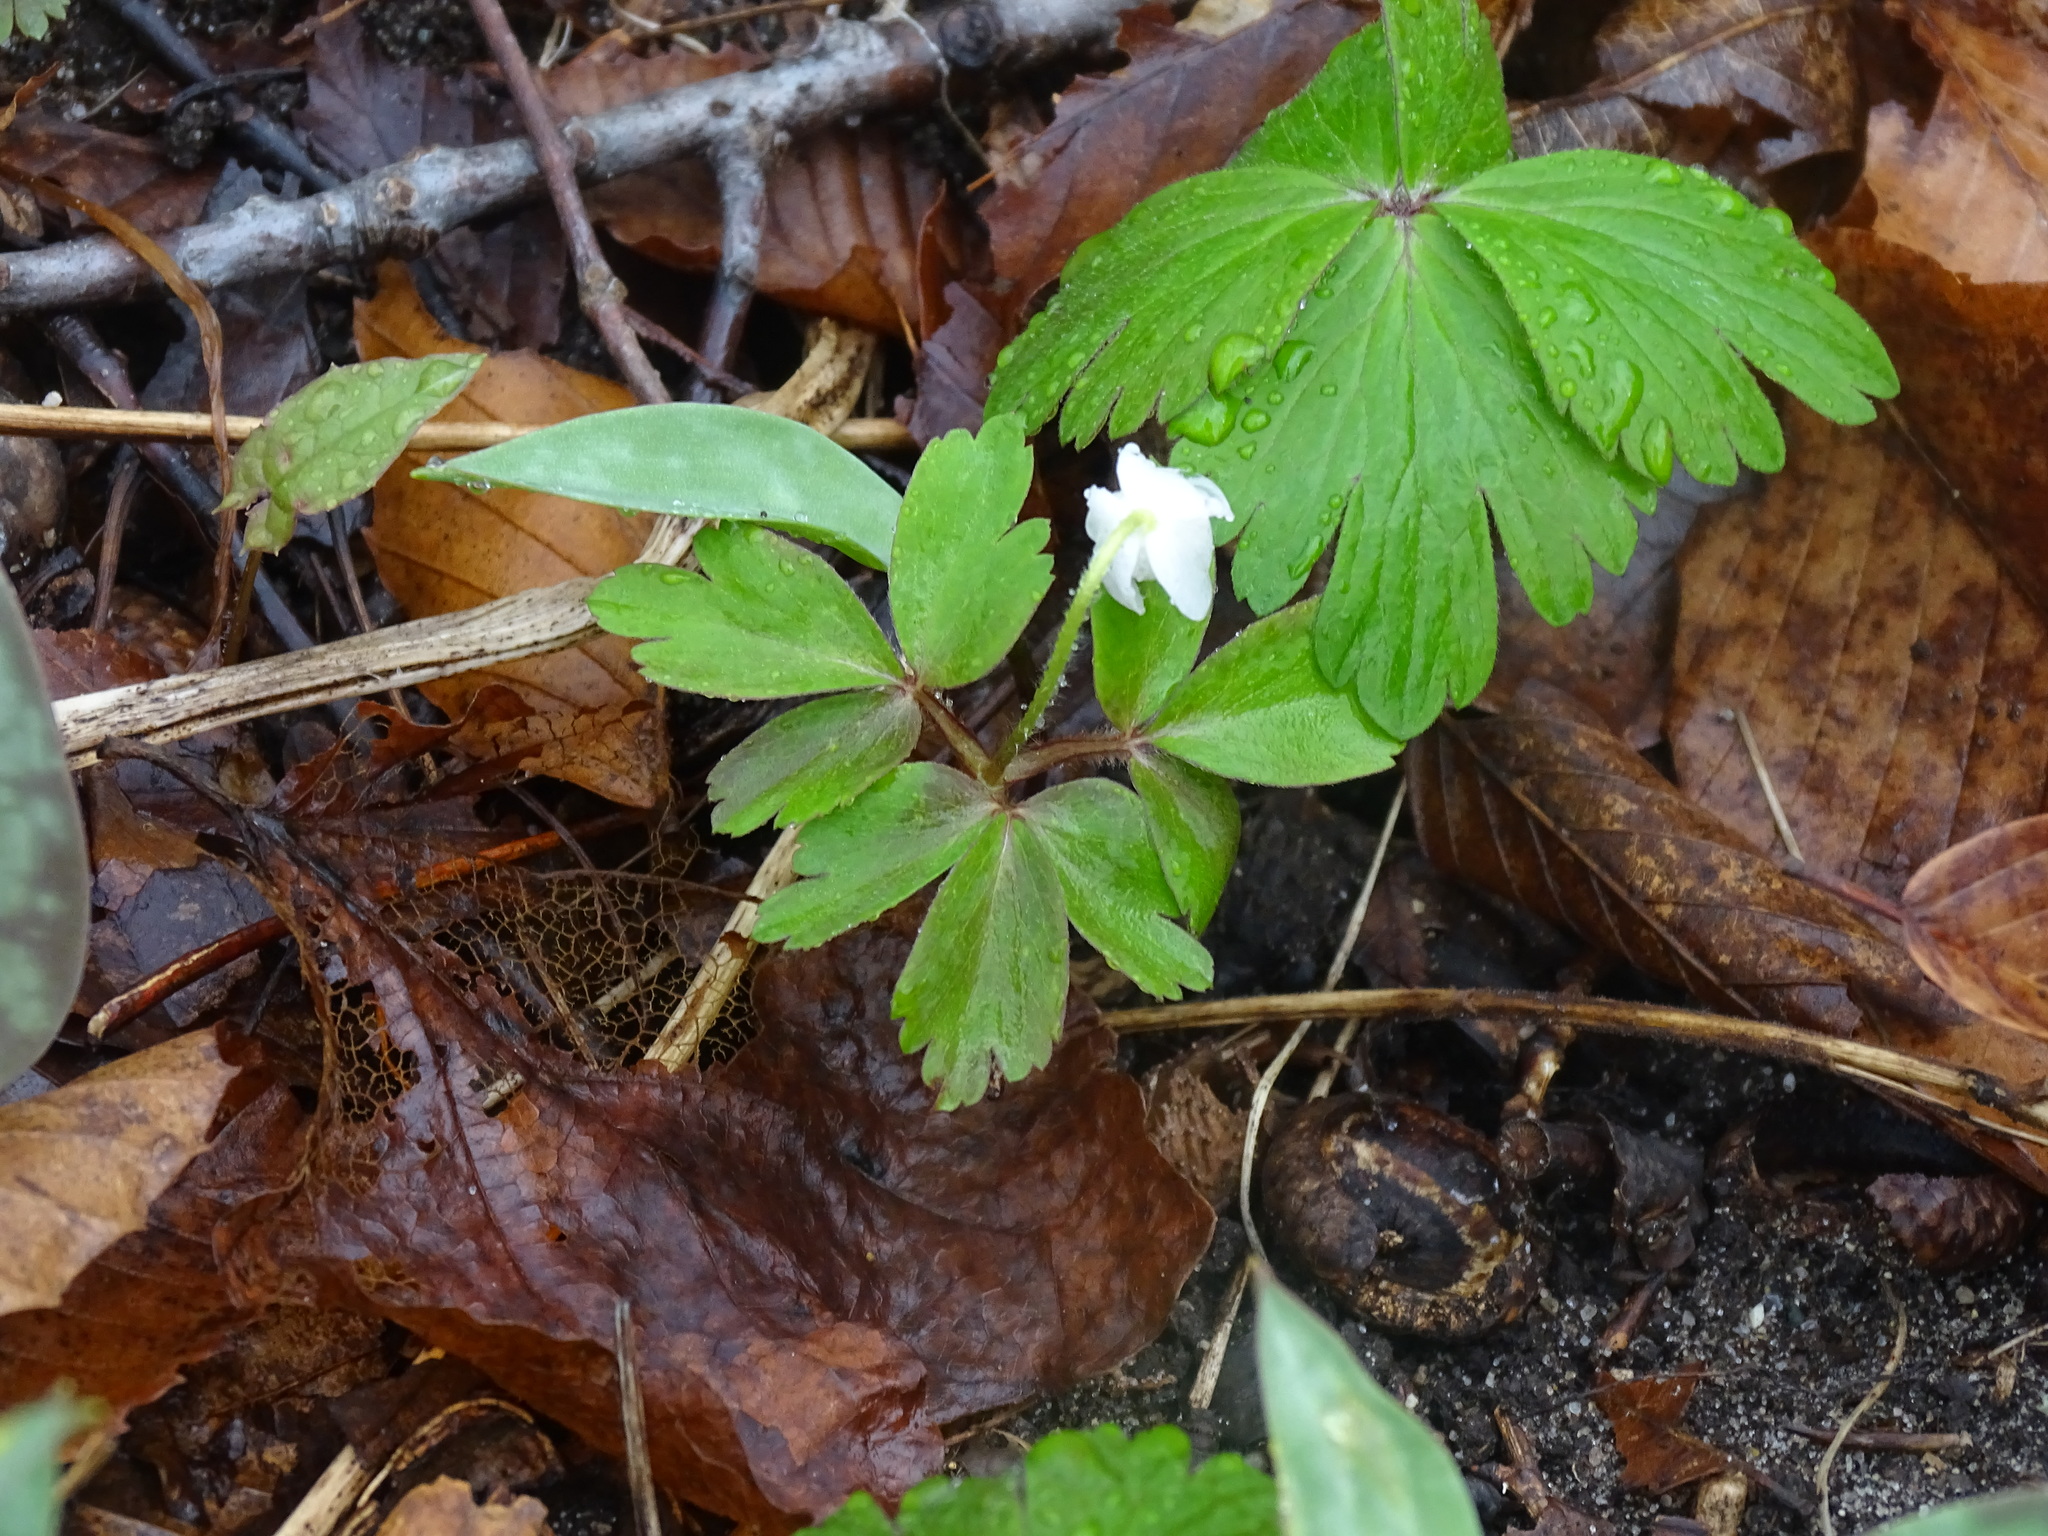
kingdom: Plantae
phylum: Tracheophyta
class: Magnoliopsida
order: Ranunculales
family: Ranunculaceae
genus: Anemone
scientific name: Anemone quinquefolia
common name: Wood anemone
